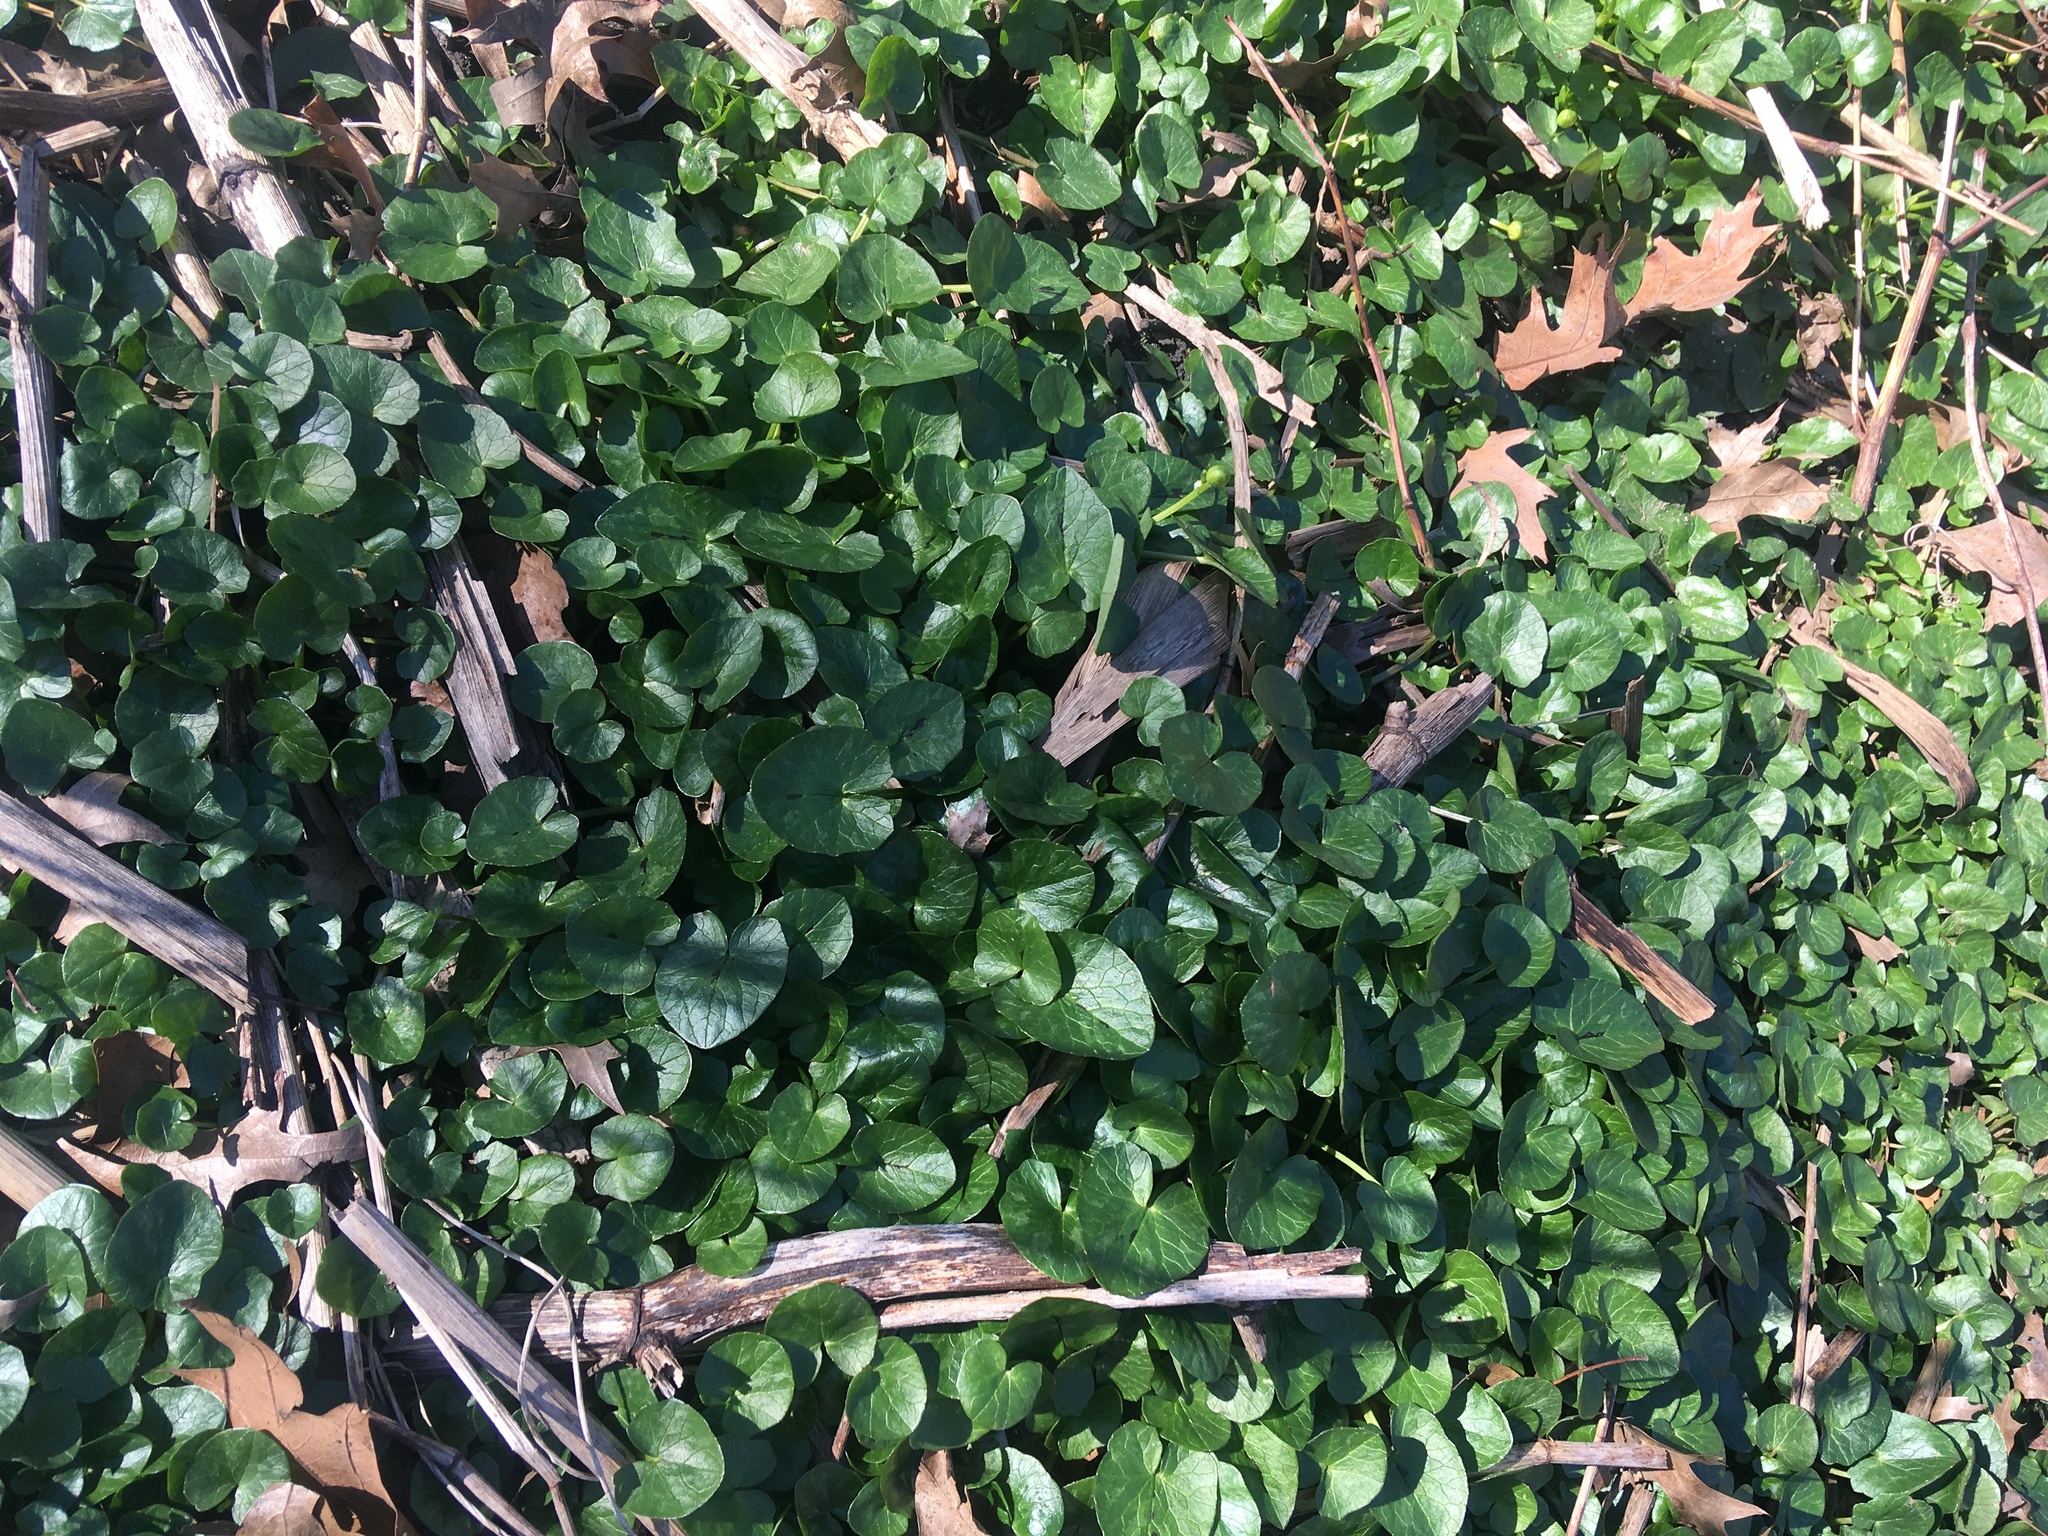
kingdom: Plantae
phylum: Tracheophyta
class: Magnoliopsida
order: Ranunculales
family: Ranunculaceae
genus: Ficaria
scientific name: Ficaria verna
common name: Lesser celandine
